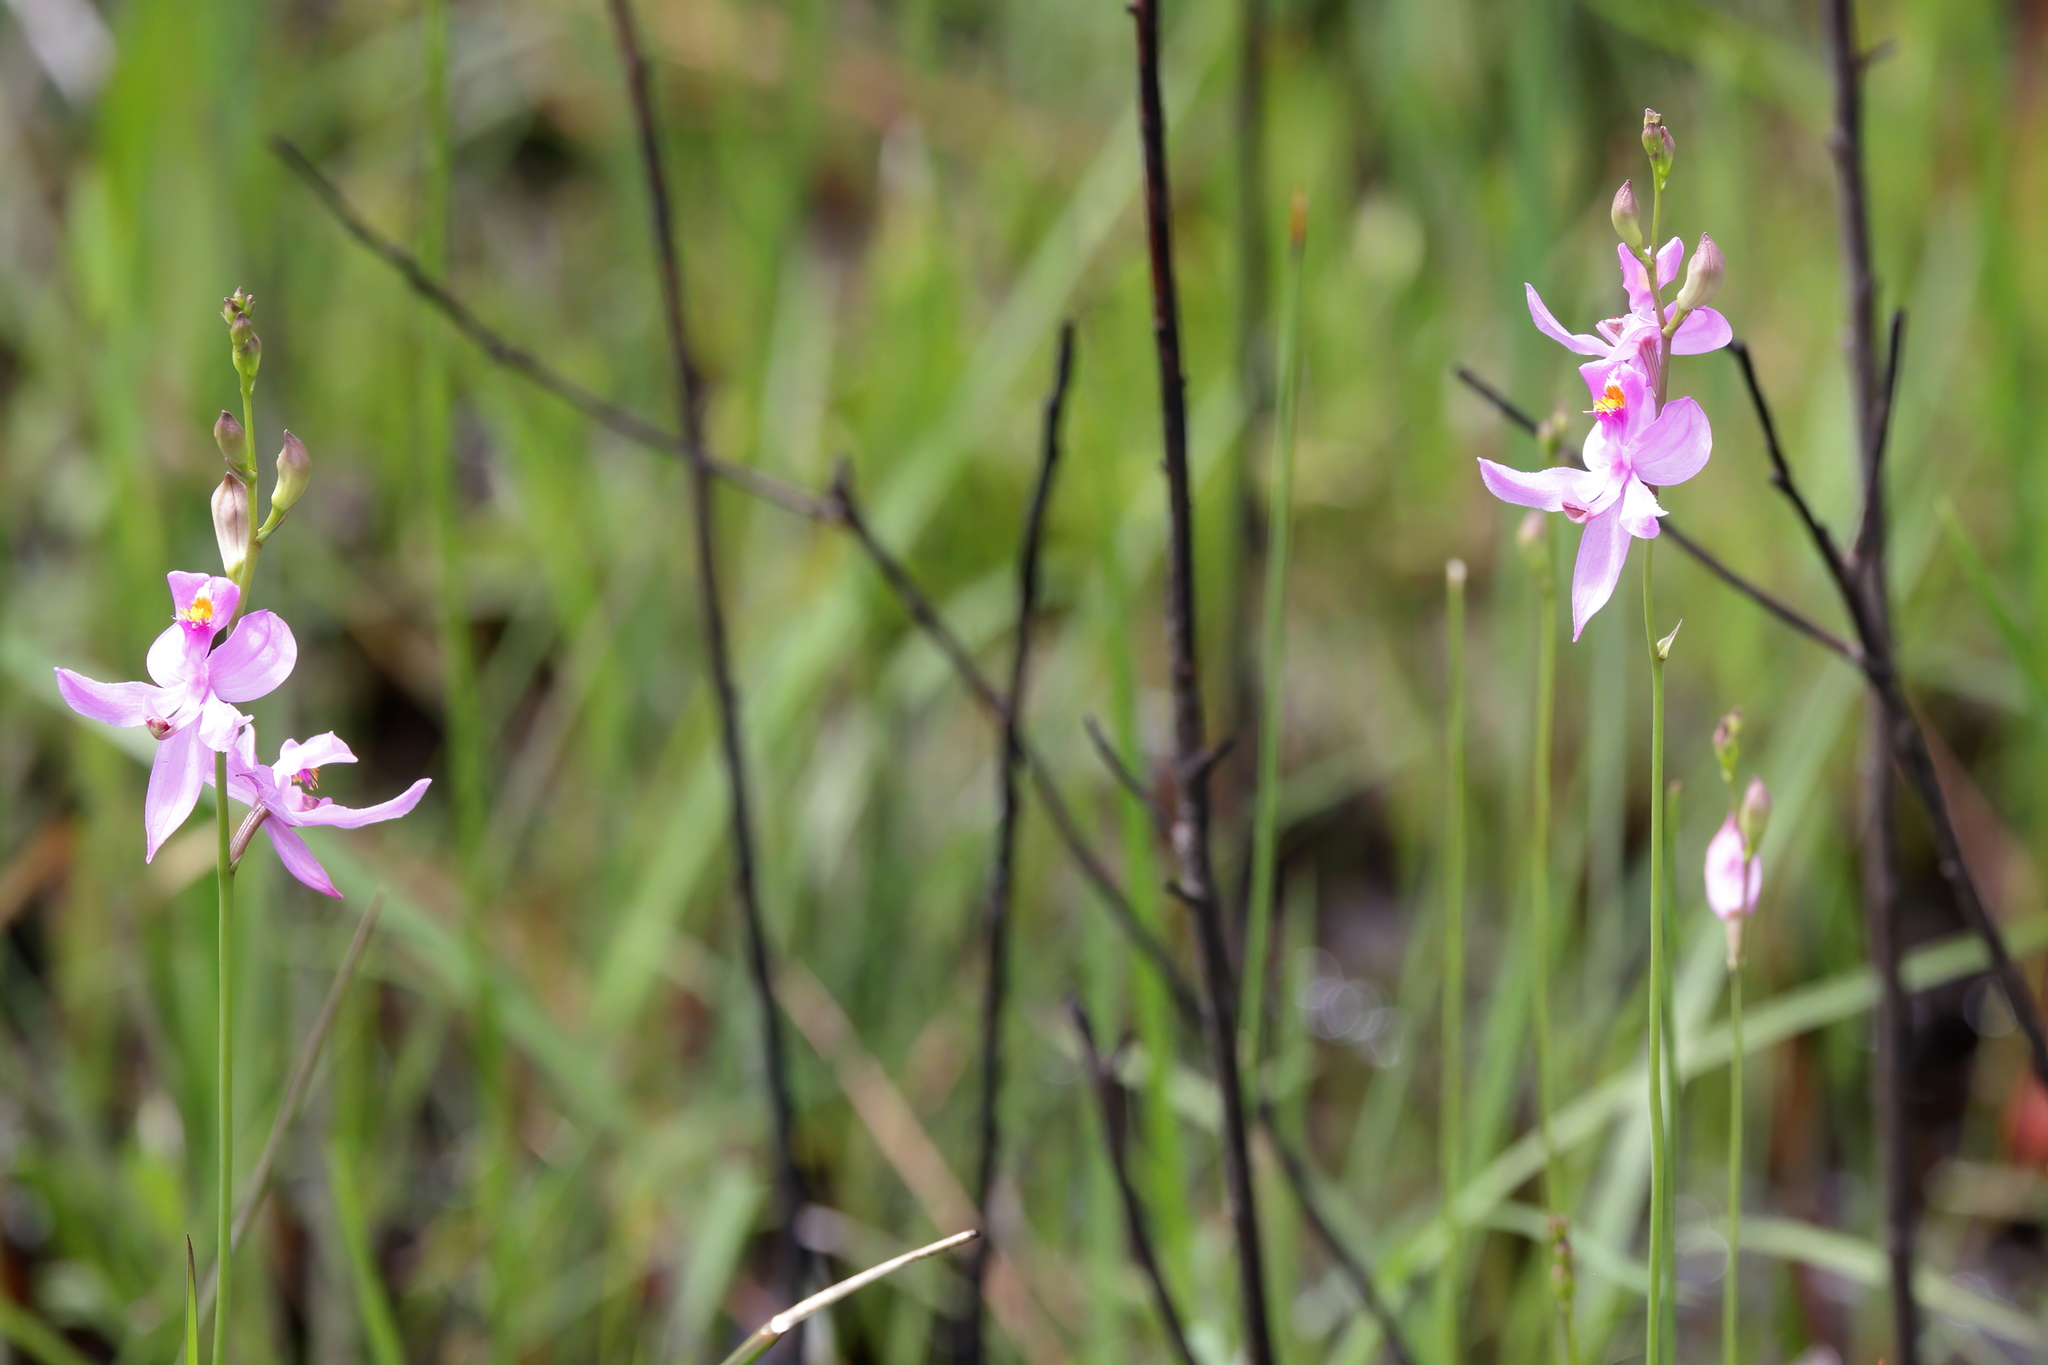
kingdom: Plantae
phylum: Tracheophyta
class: Liliopsida
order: Asparagales
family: Orchidaceae
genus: Calopogon
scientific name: Calopogon pallidus
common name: Pale grasspink
